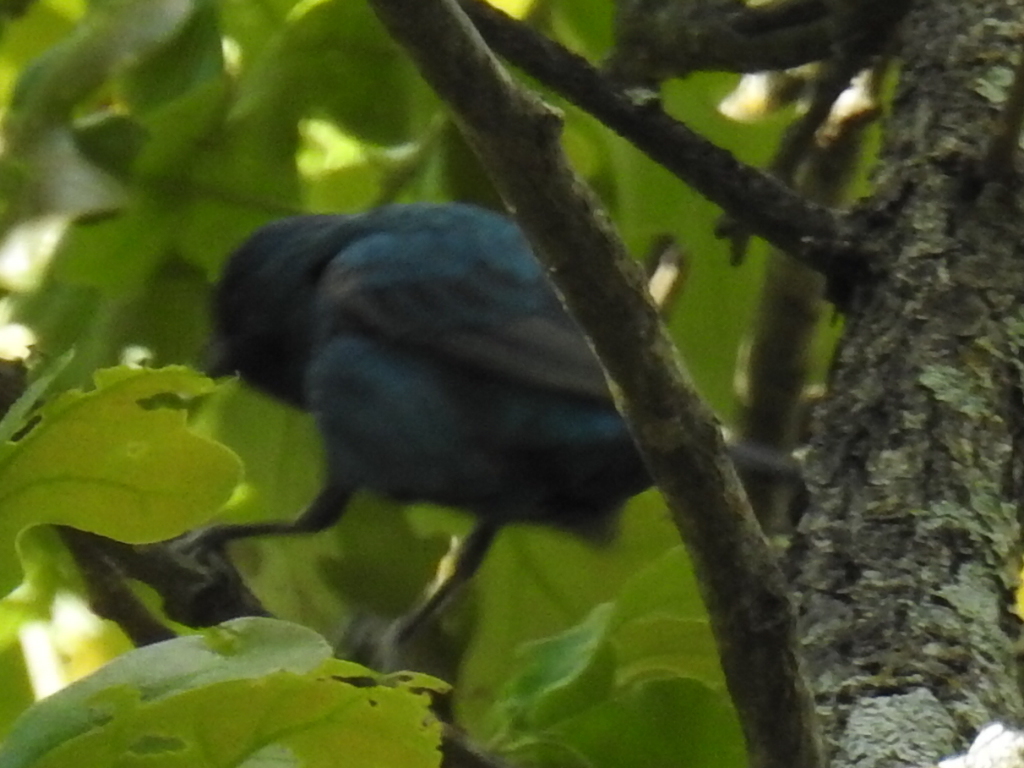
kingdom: Animalia
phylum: Chordata
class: Aves
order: Passeriformes
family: Cardinalidae
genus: Passerina
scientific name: Passerina cyanea
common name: Indigo bunting
